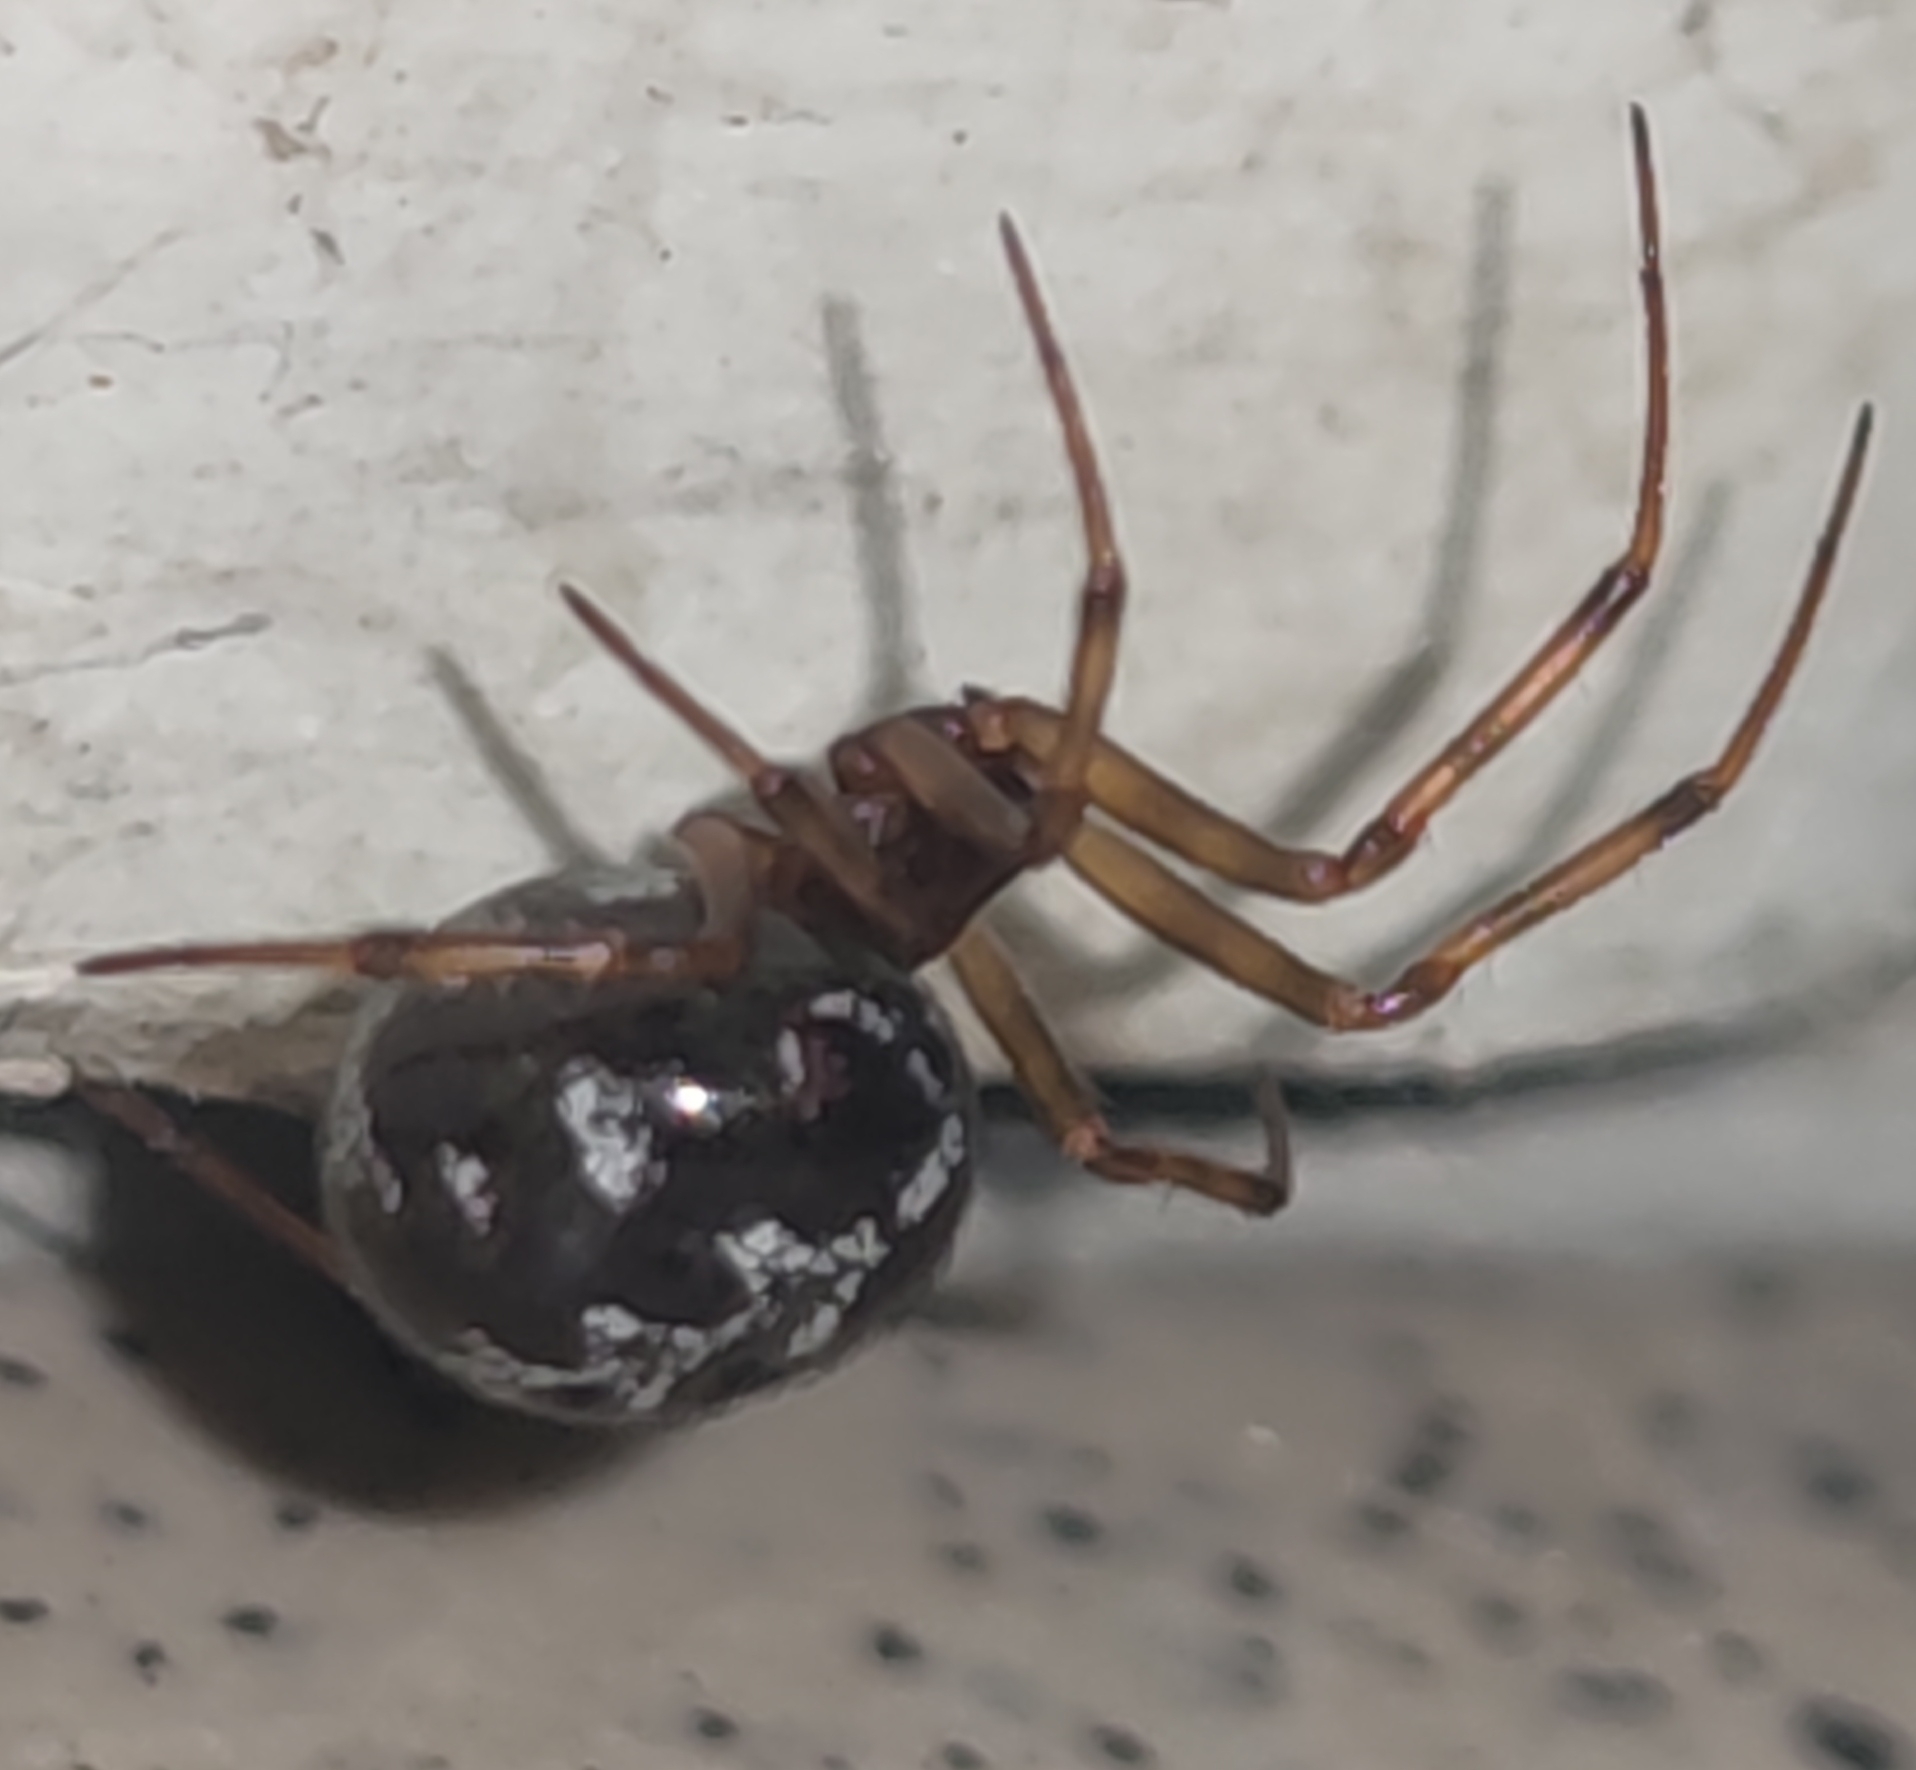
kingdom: Animalia
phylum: Arthropoda
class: Arachnida
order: Araneae
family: Theridiidae
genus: Steatoda
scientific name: Steatoda triangulosa
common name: Triangulate bud spider
